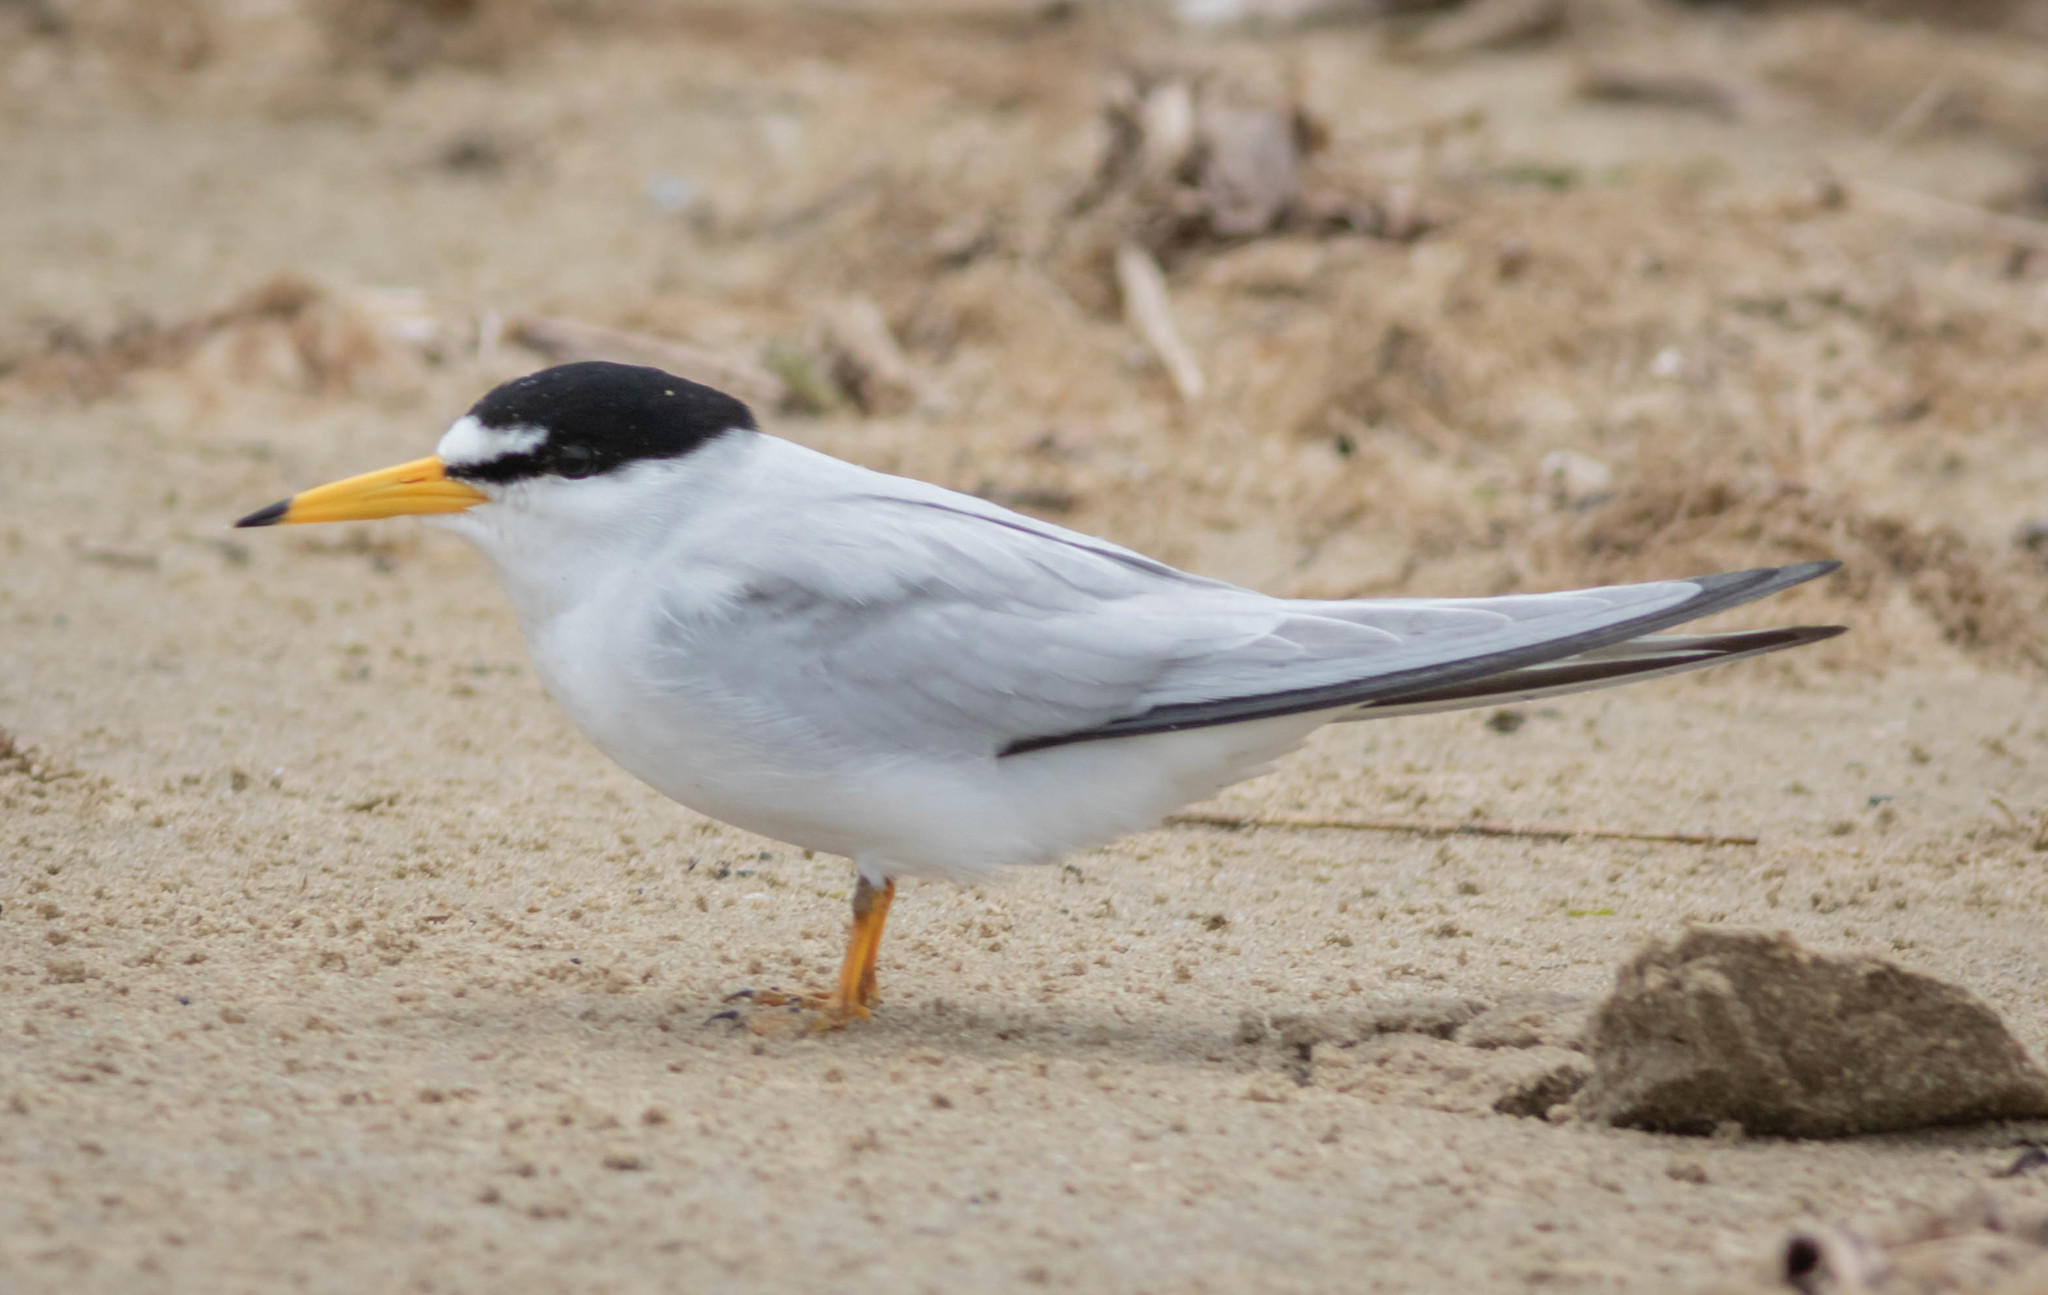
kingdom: Animalia
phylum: Chordata
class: Aves
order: Charadriiformes
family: Laridae
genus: Sternula
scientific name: Sternula antillarum
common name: Least tern
